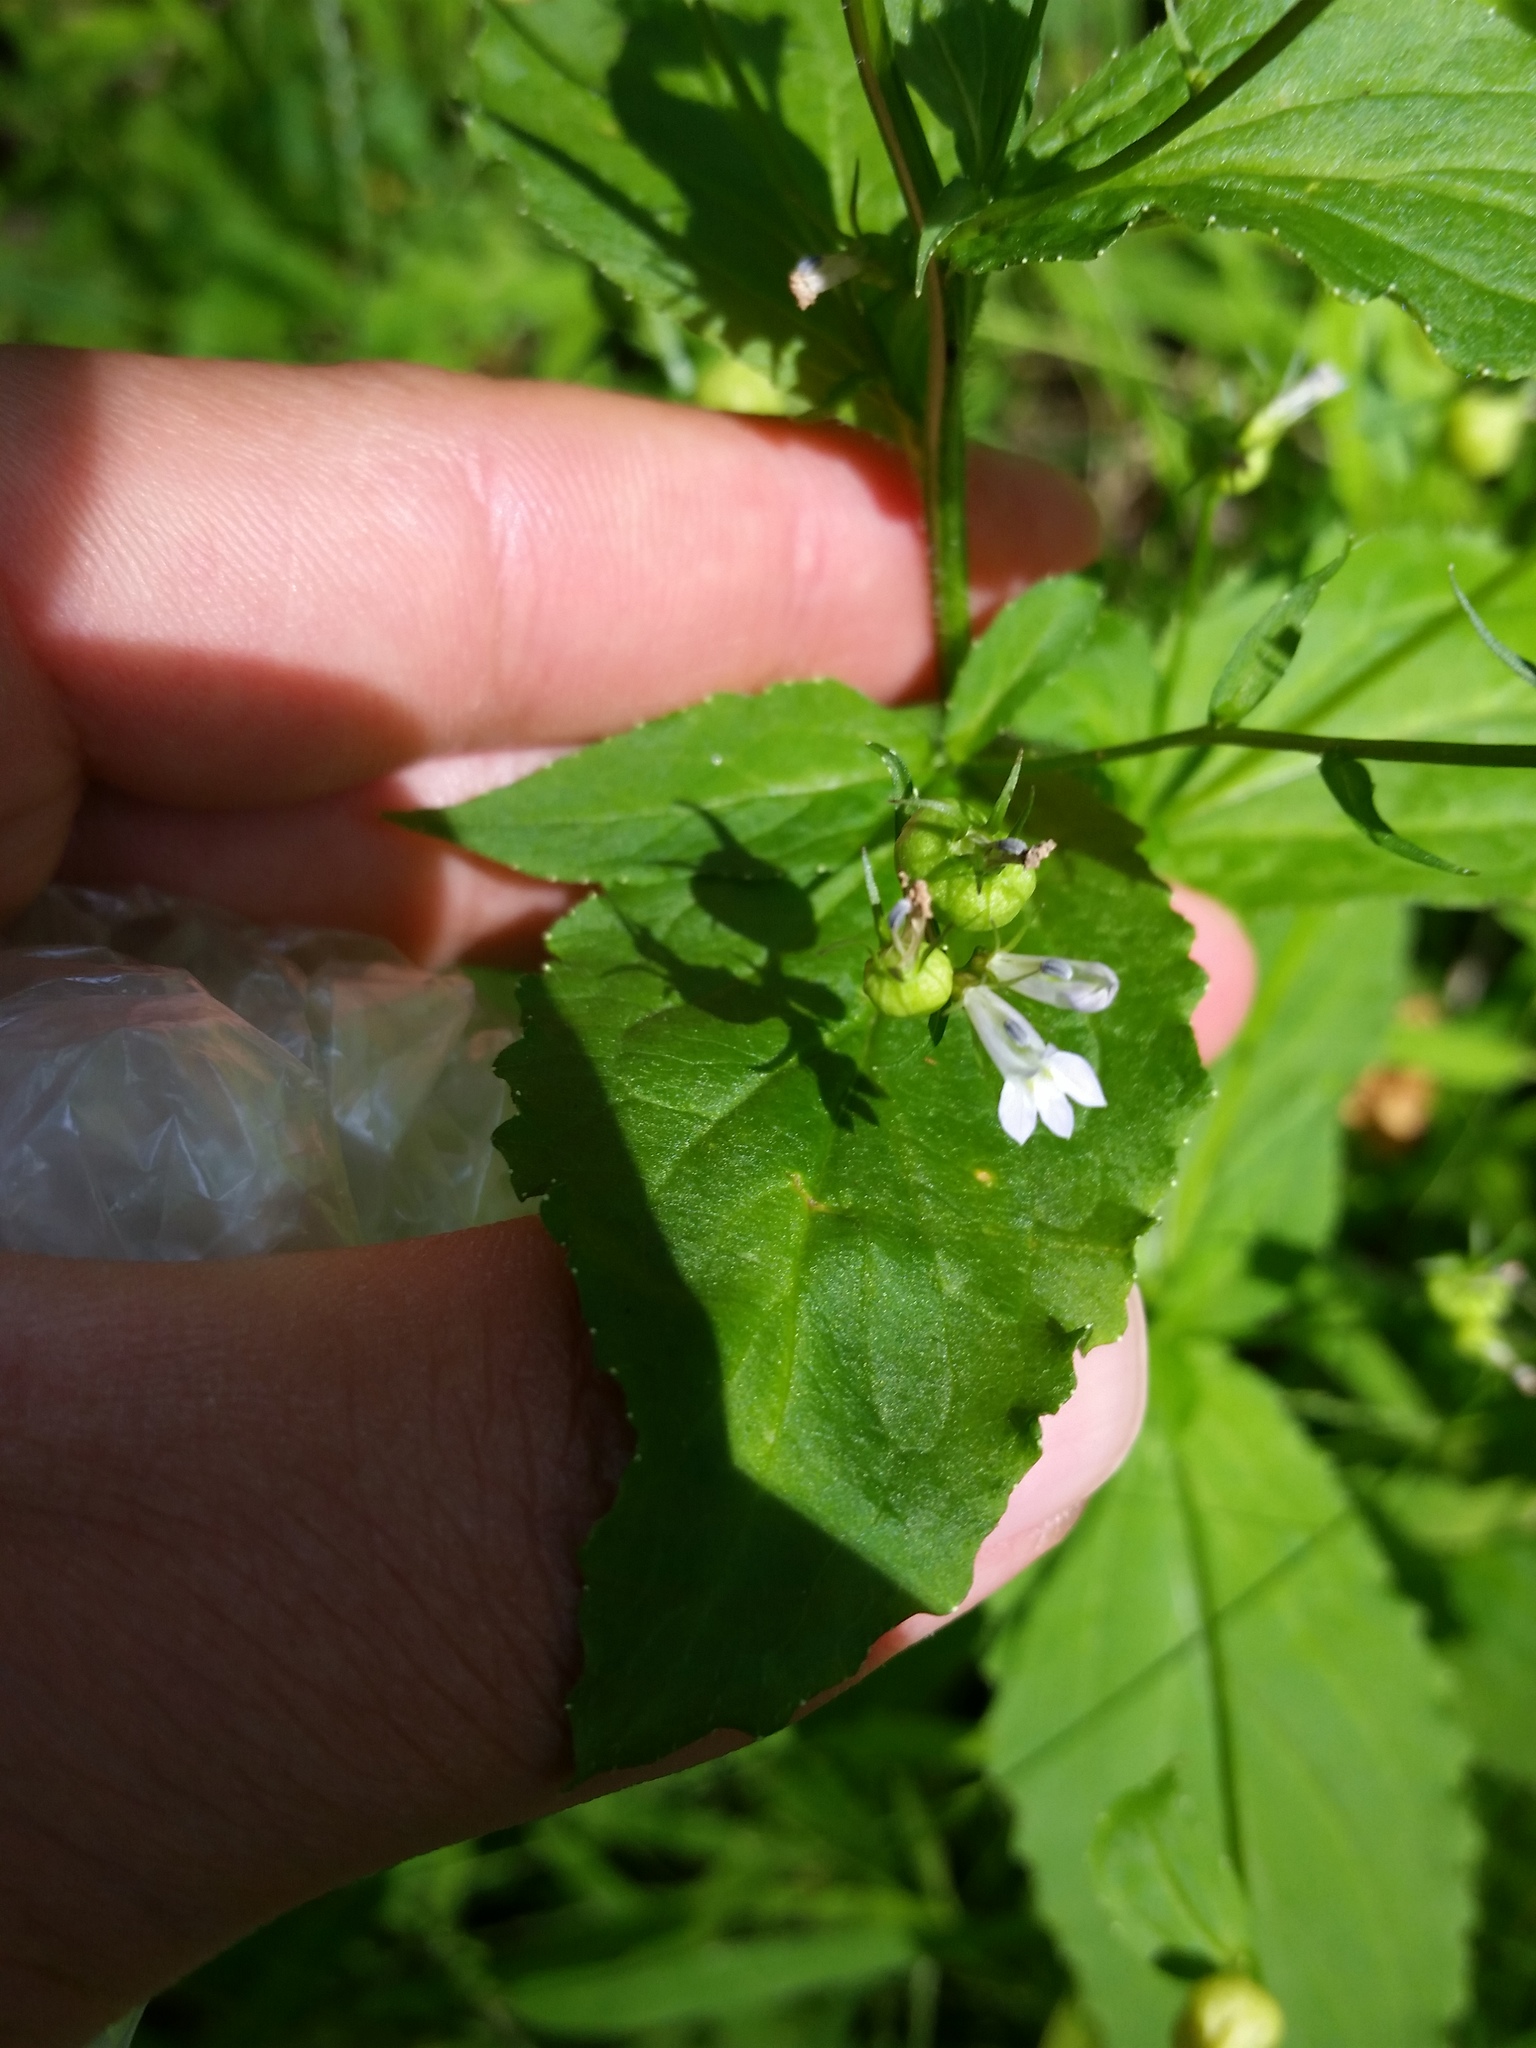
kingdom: Plantae
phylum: Tracheophyta
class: Magnoliopsida
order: Asterales
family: Campanulaceae
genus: Lobelia
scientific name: Lobelia inflata
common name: Indian tobacco
